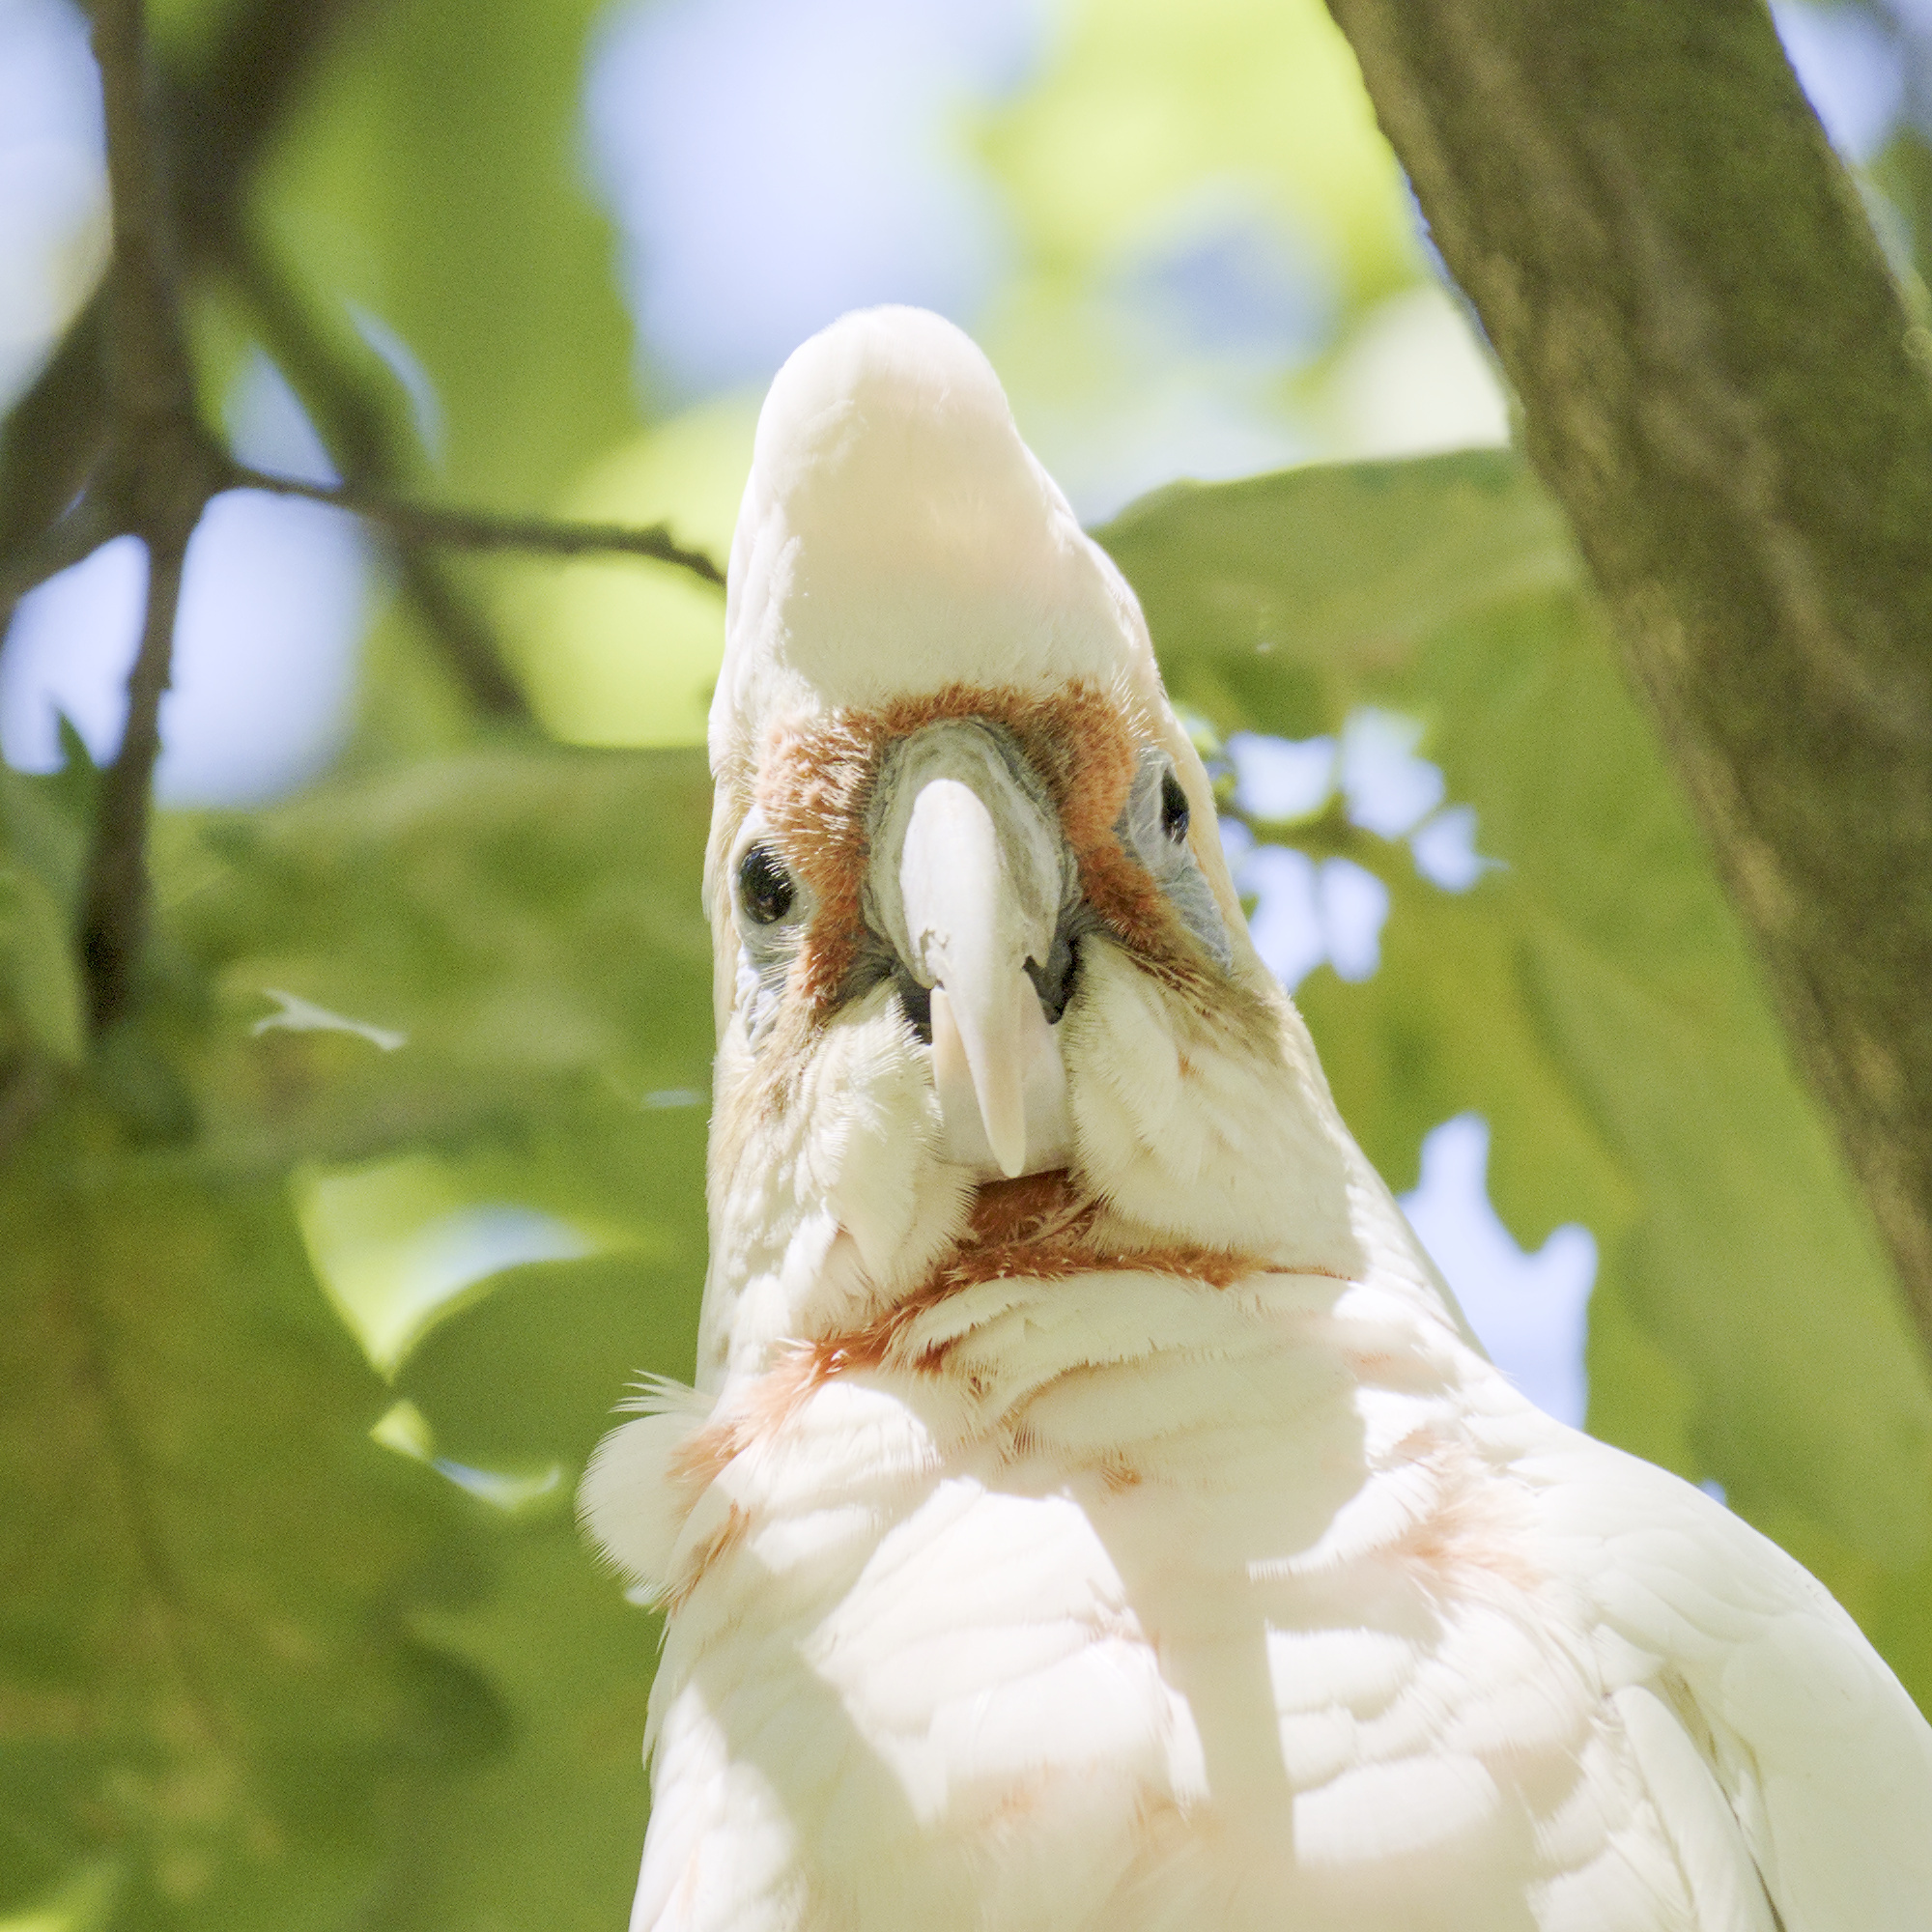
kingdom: Animalia
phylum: Chordata
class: Aves
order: Psittaciformes
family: Psittacidae
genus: Cacatua
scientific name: Cacatua tenuirostris
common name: Long-billed corella
